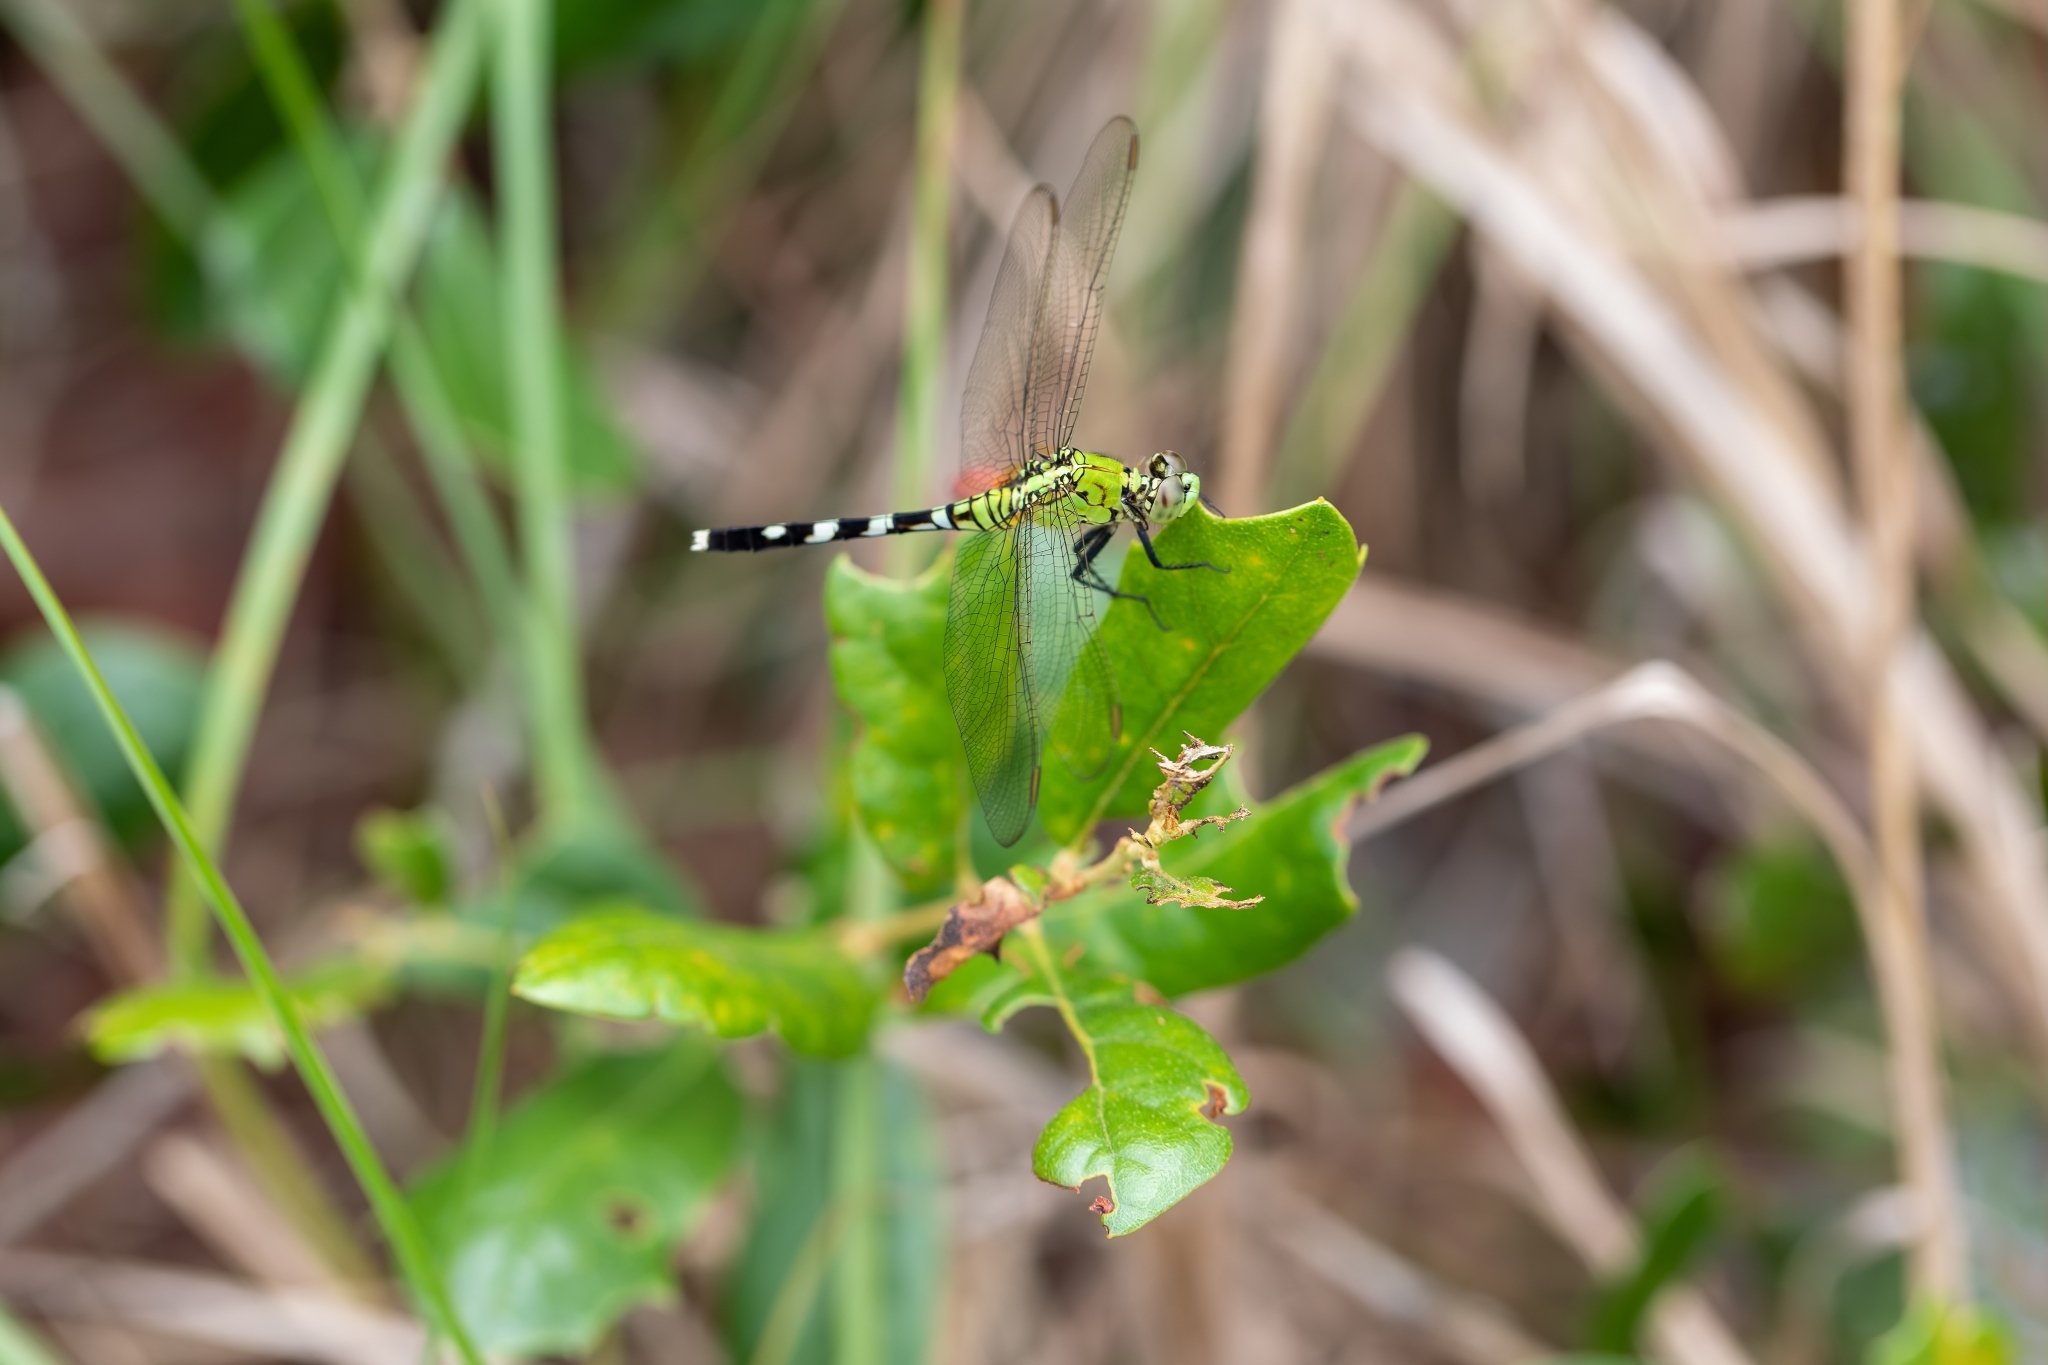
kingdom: Animalia
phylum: Arthropoda
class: Insecta
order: Odonata
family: Libellulidae
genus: Erythemis
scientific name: Erythemis simplicicollis
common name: Eastern pondhawk
